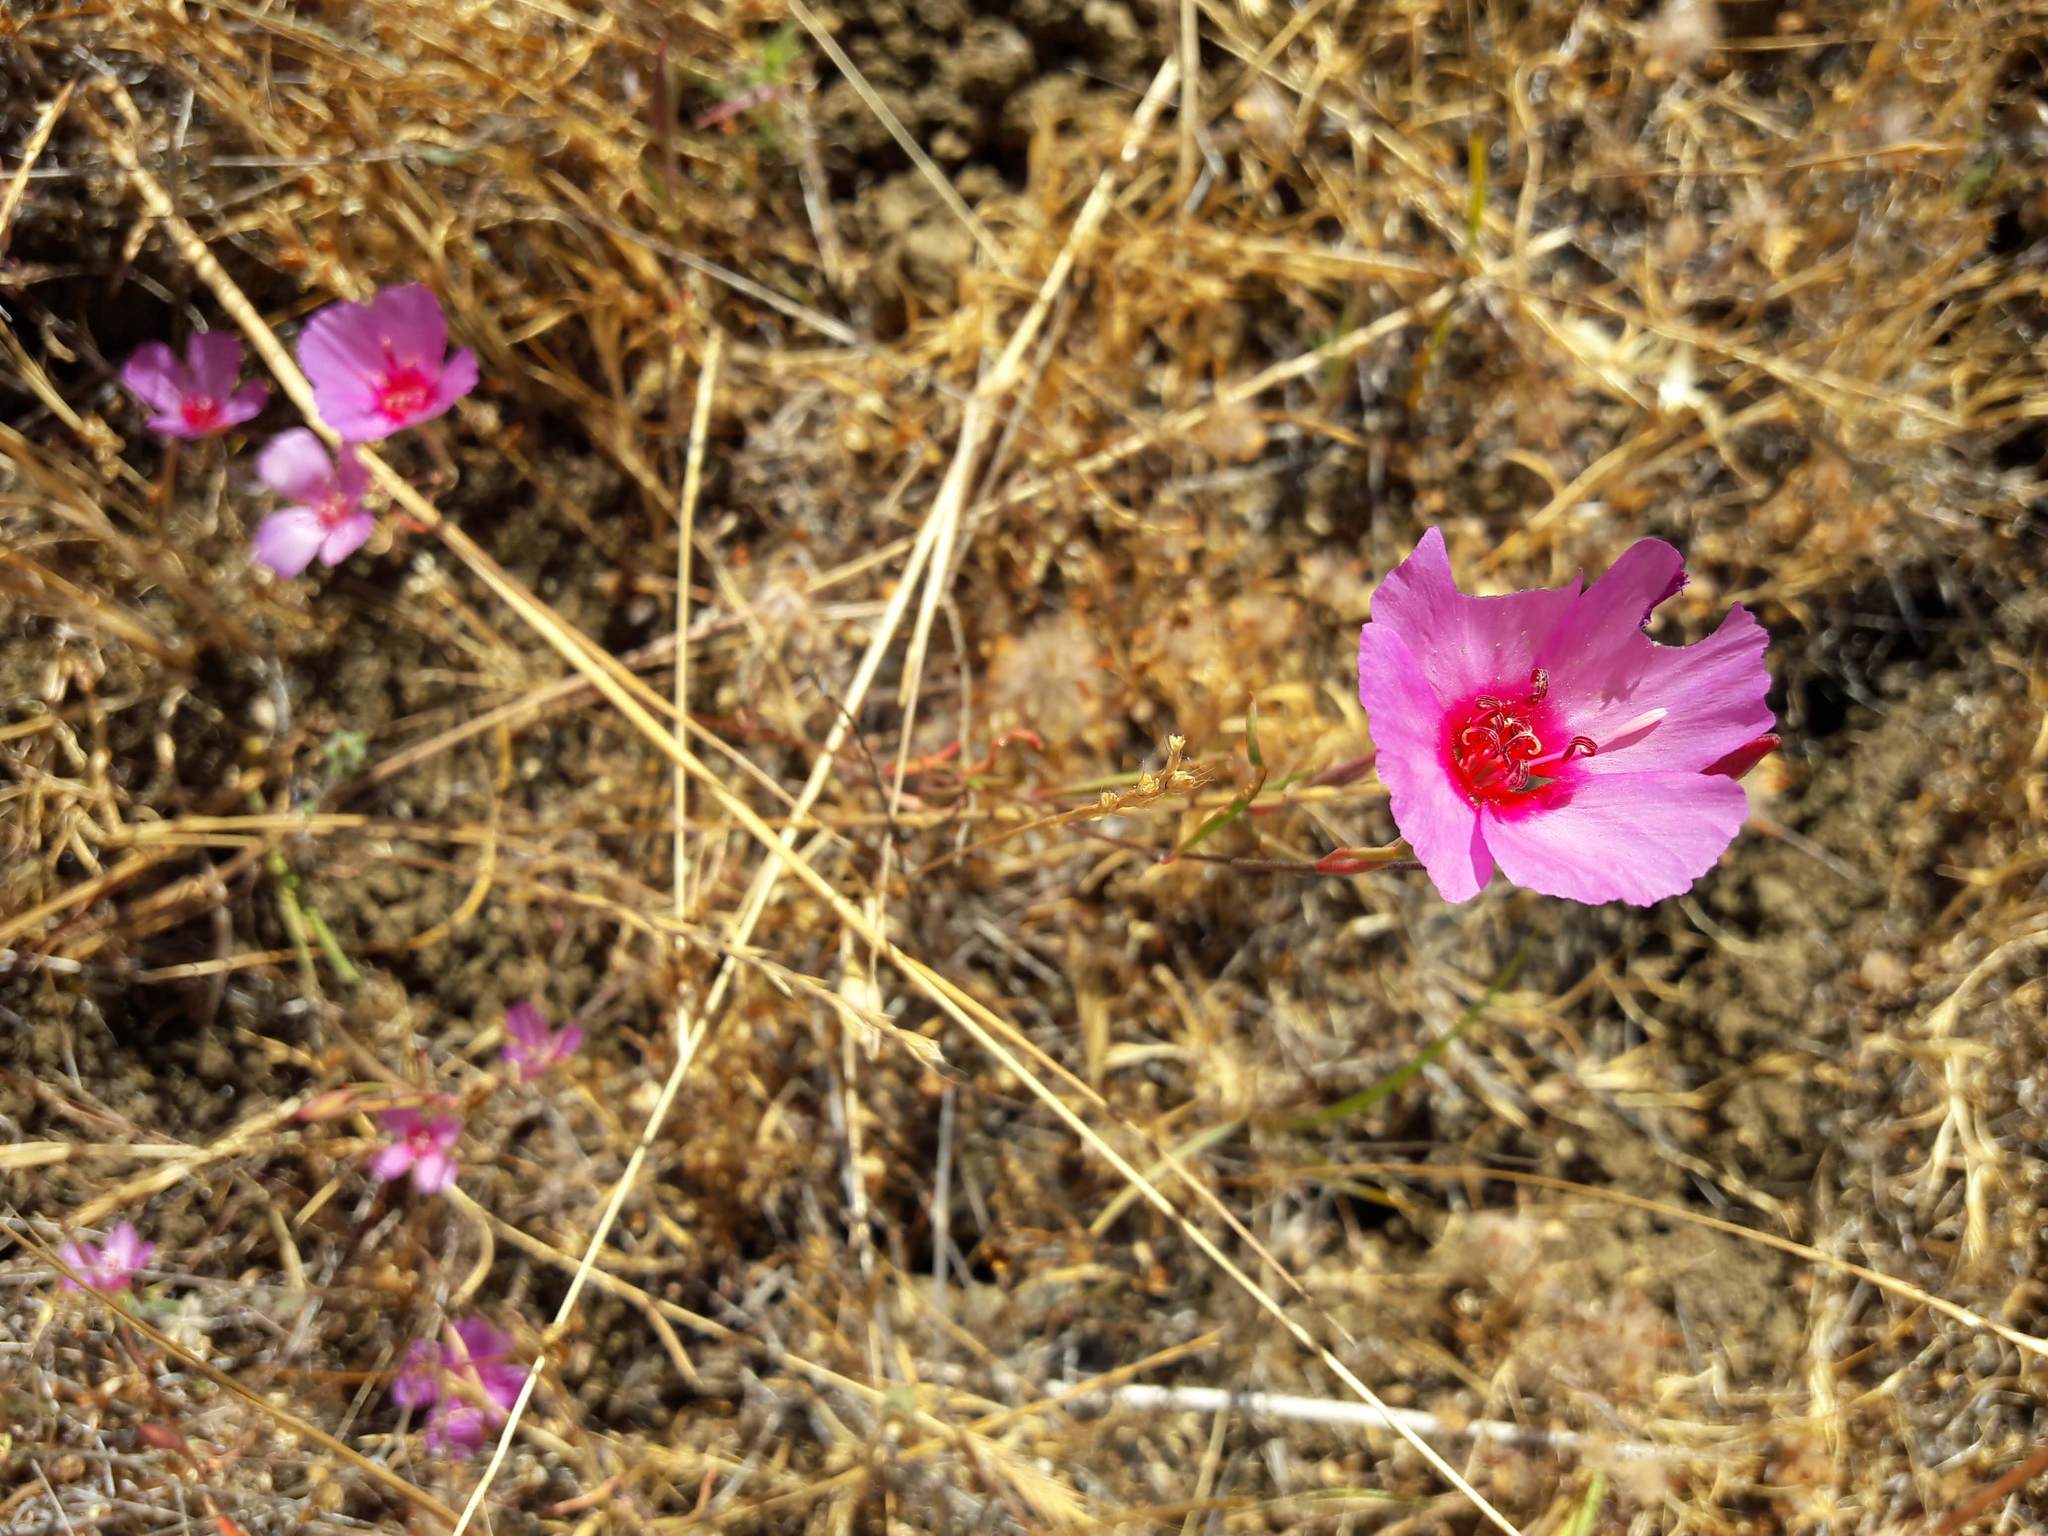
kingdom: Plantae
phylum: Tracheophyta
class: Magnoliopsida
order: Myrtales
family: Onagraceae
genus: Clarkia
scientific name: Clarkia rubicunda
